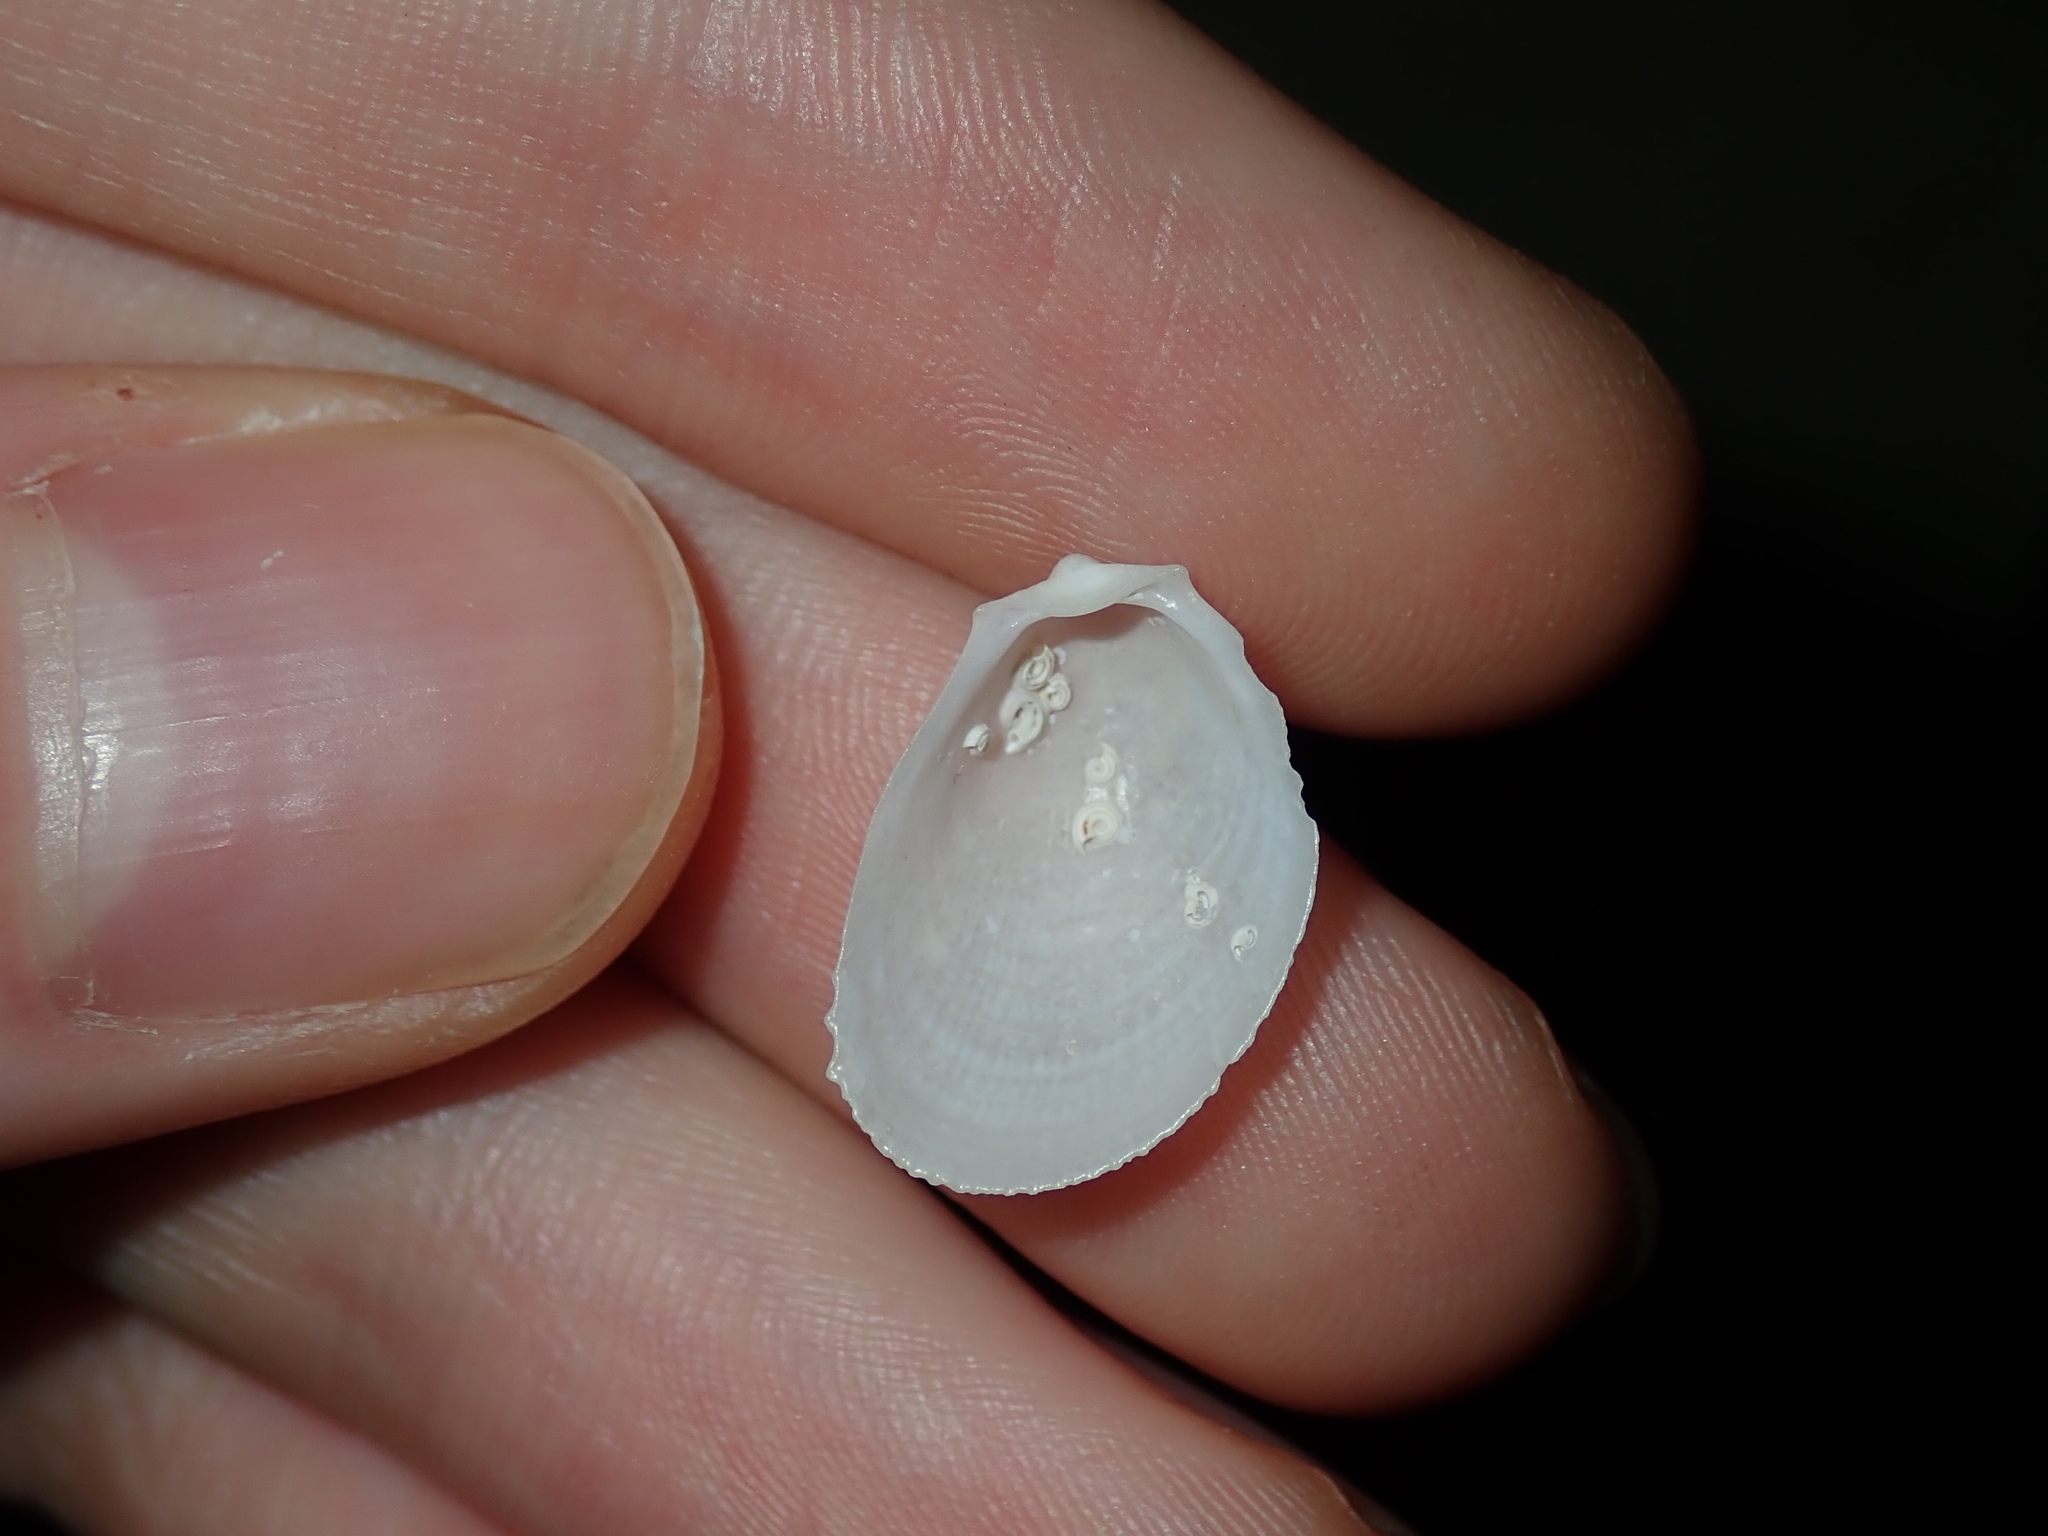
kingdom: Animalia
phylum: Mollusca
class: Bivalvia
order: Limida
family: Limidae
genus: Limaria
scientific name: Limaria orientalis
